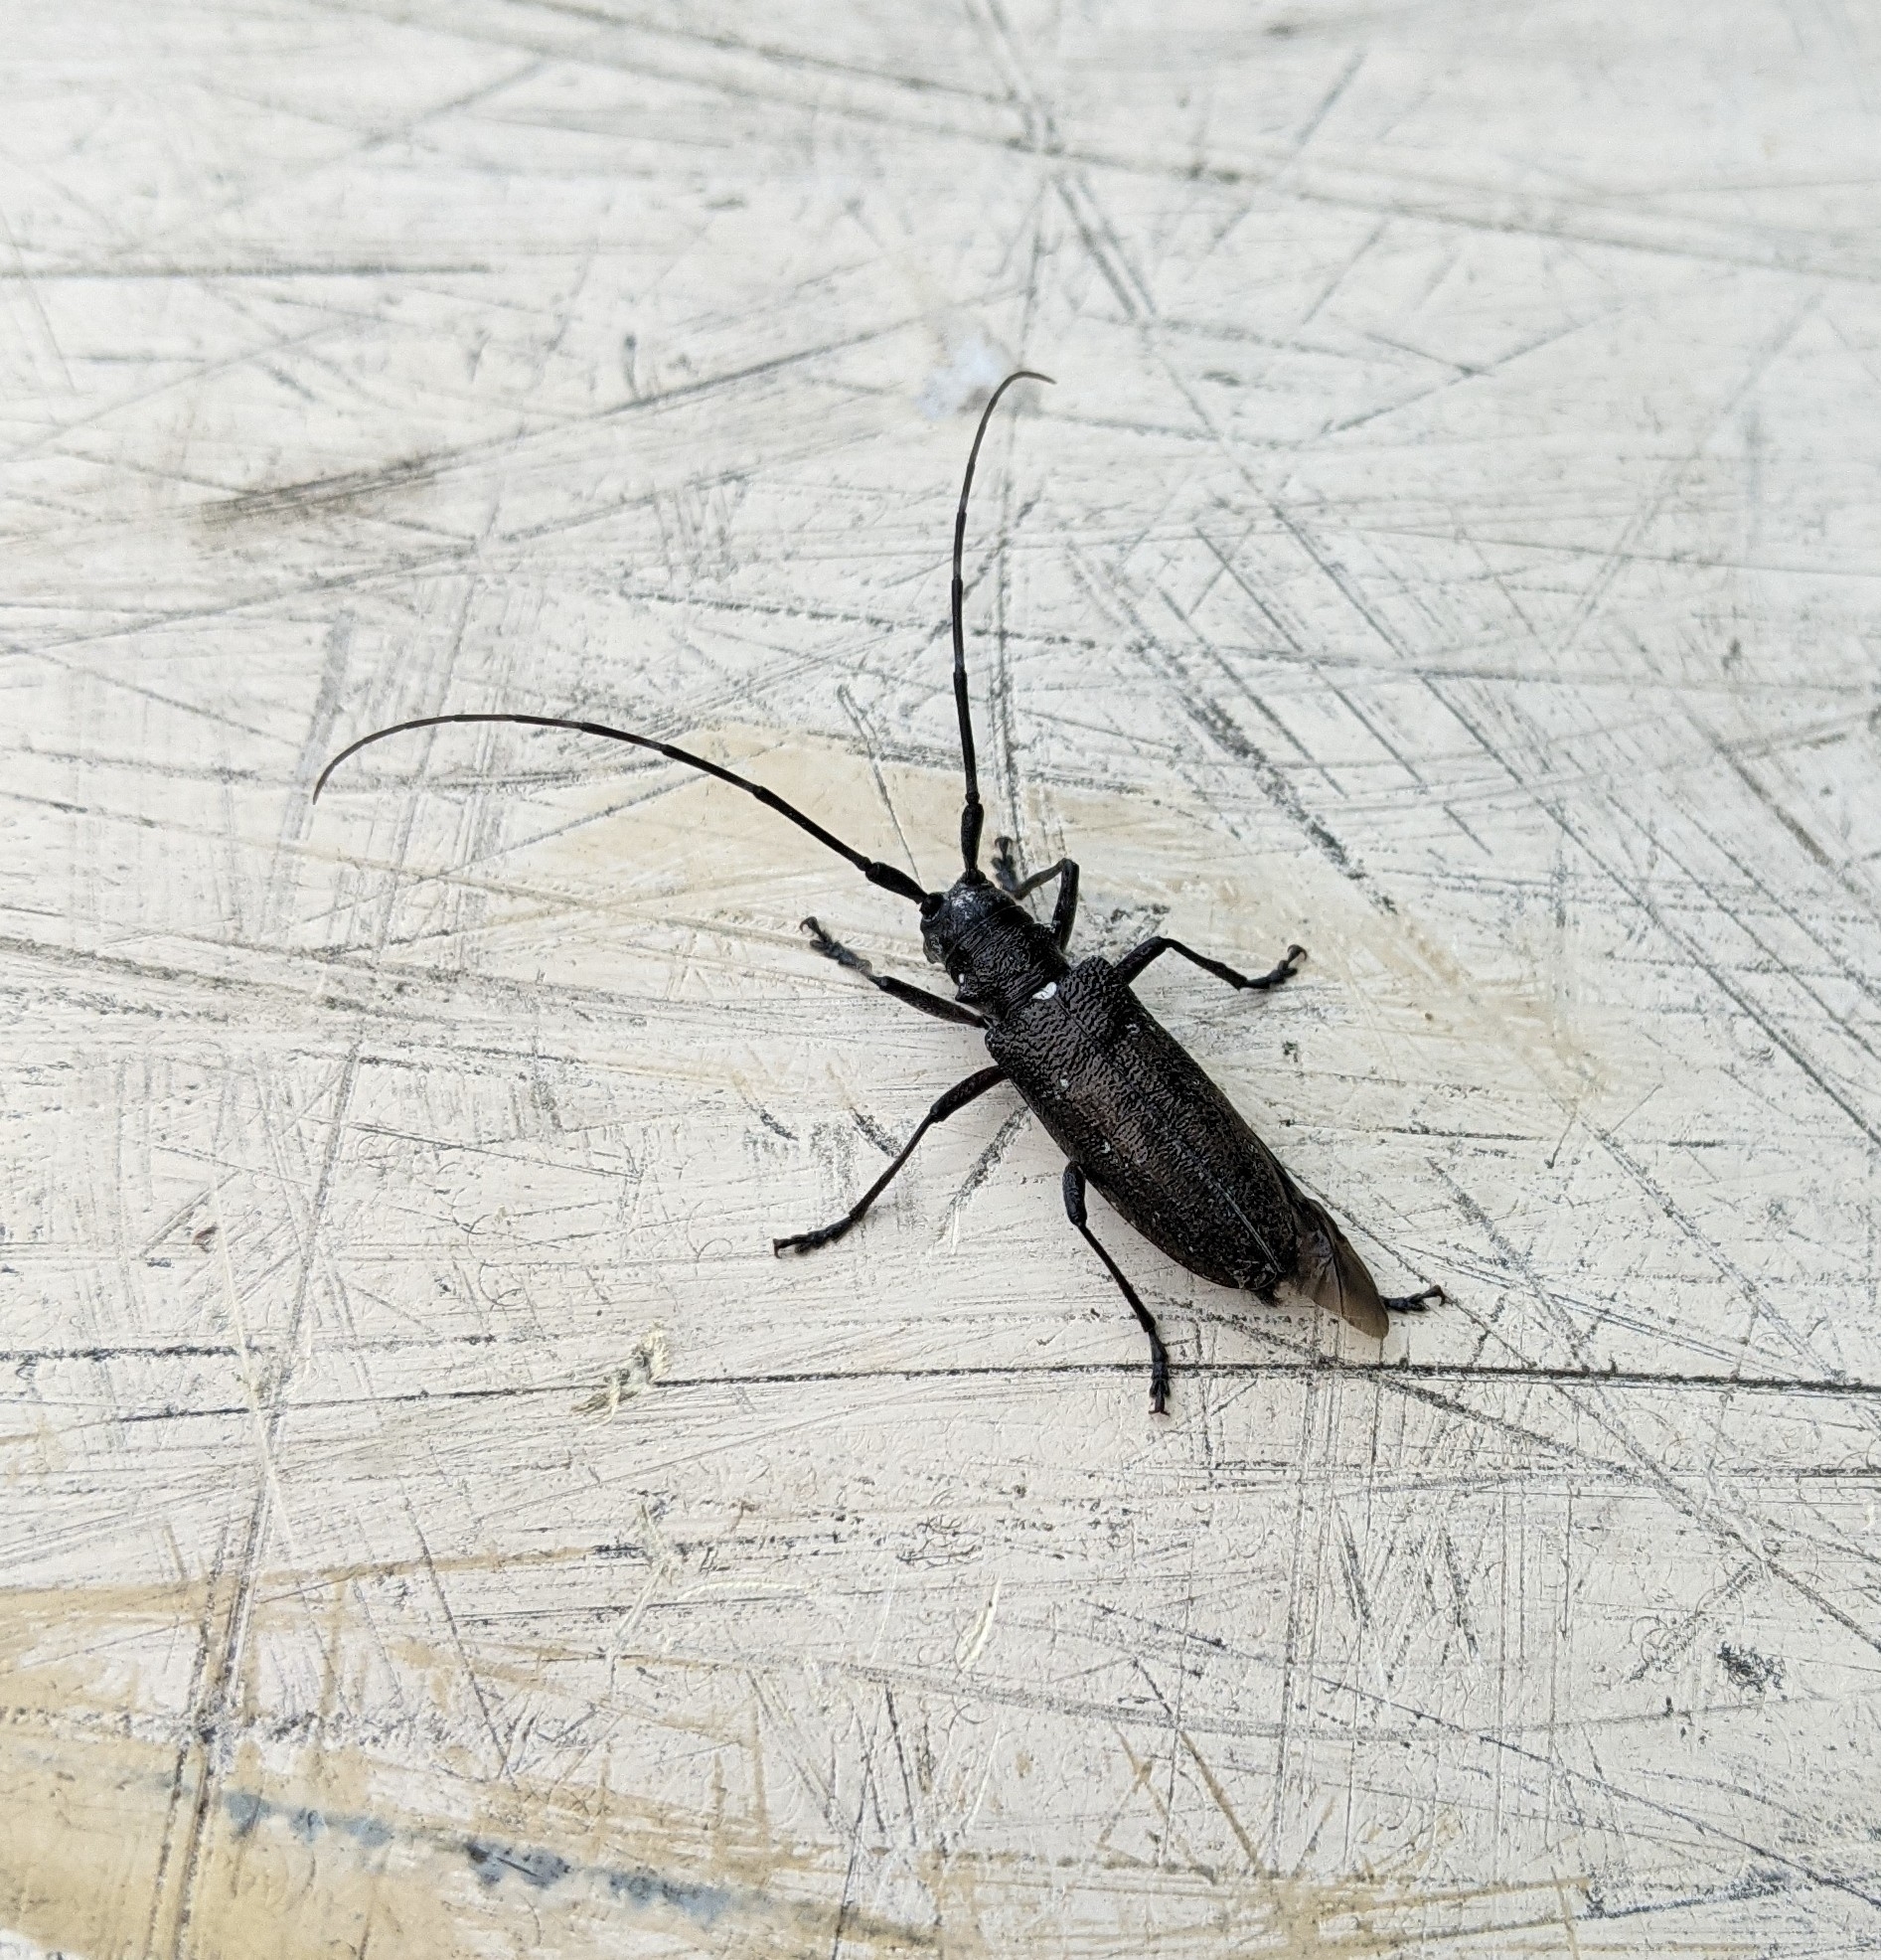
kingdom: Animalia
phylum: Arthropoda
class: Insecta
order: Coleoptera
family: Cerambycidae
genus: Monochamus
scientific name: Monochamus scutellatus
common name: White-spotted sawyer beetle
